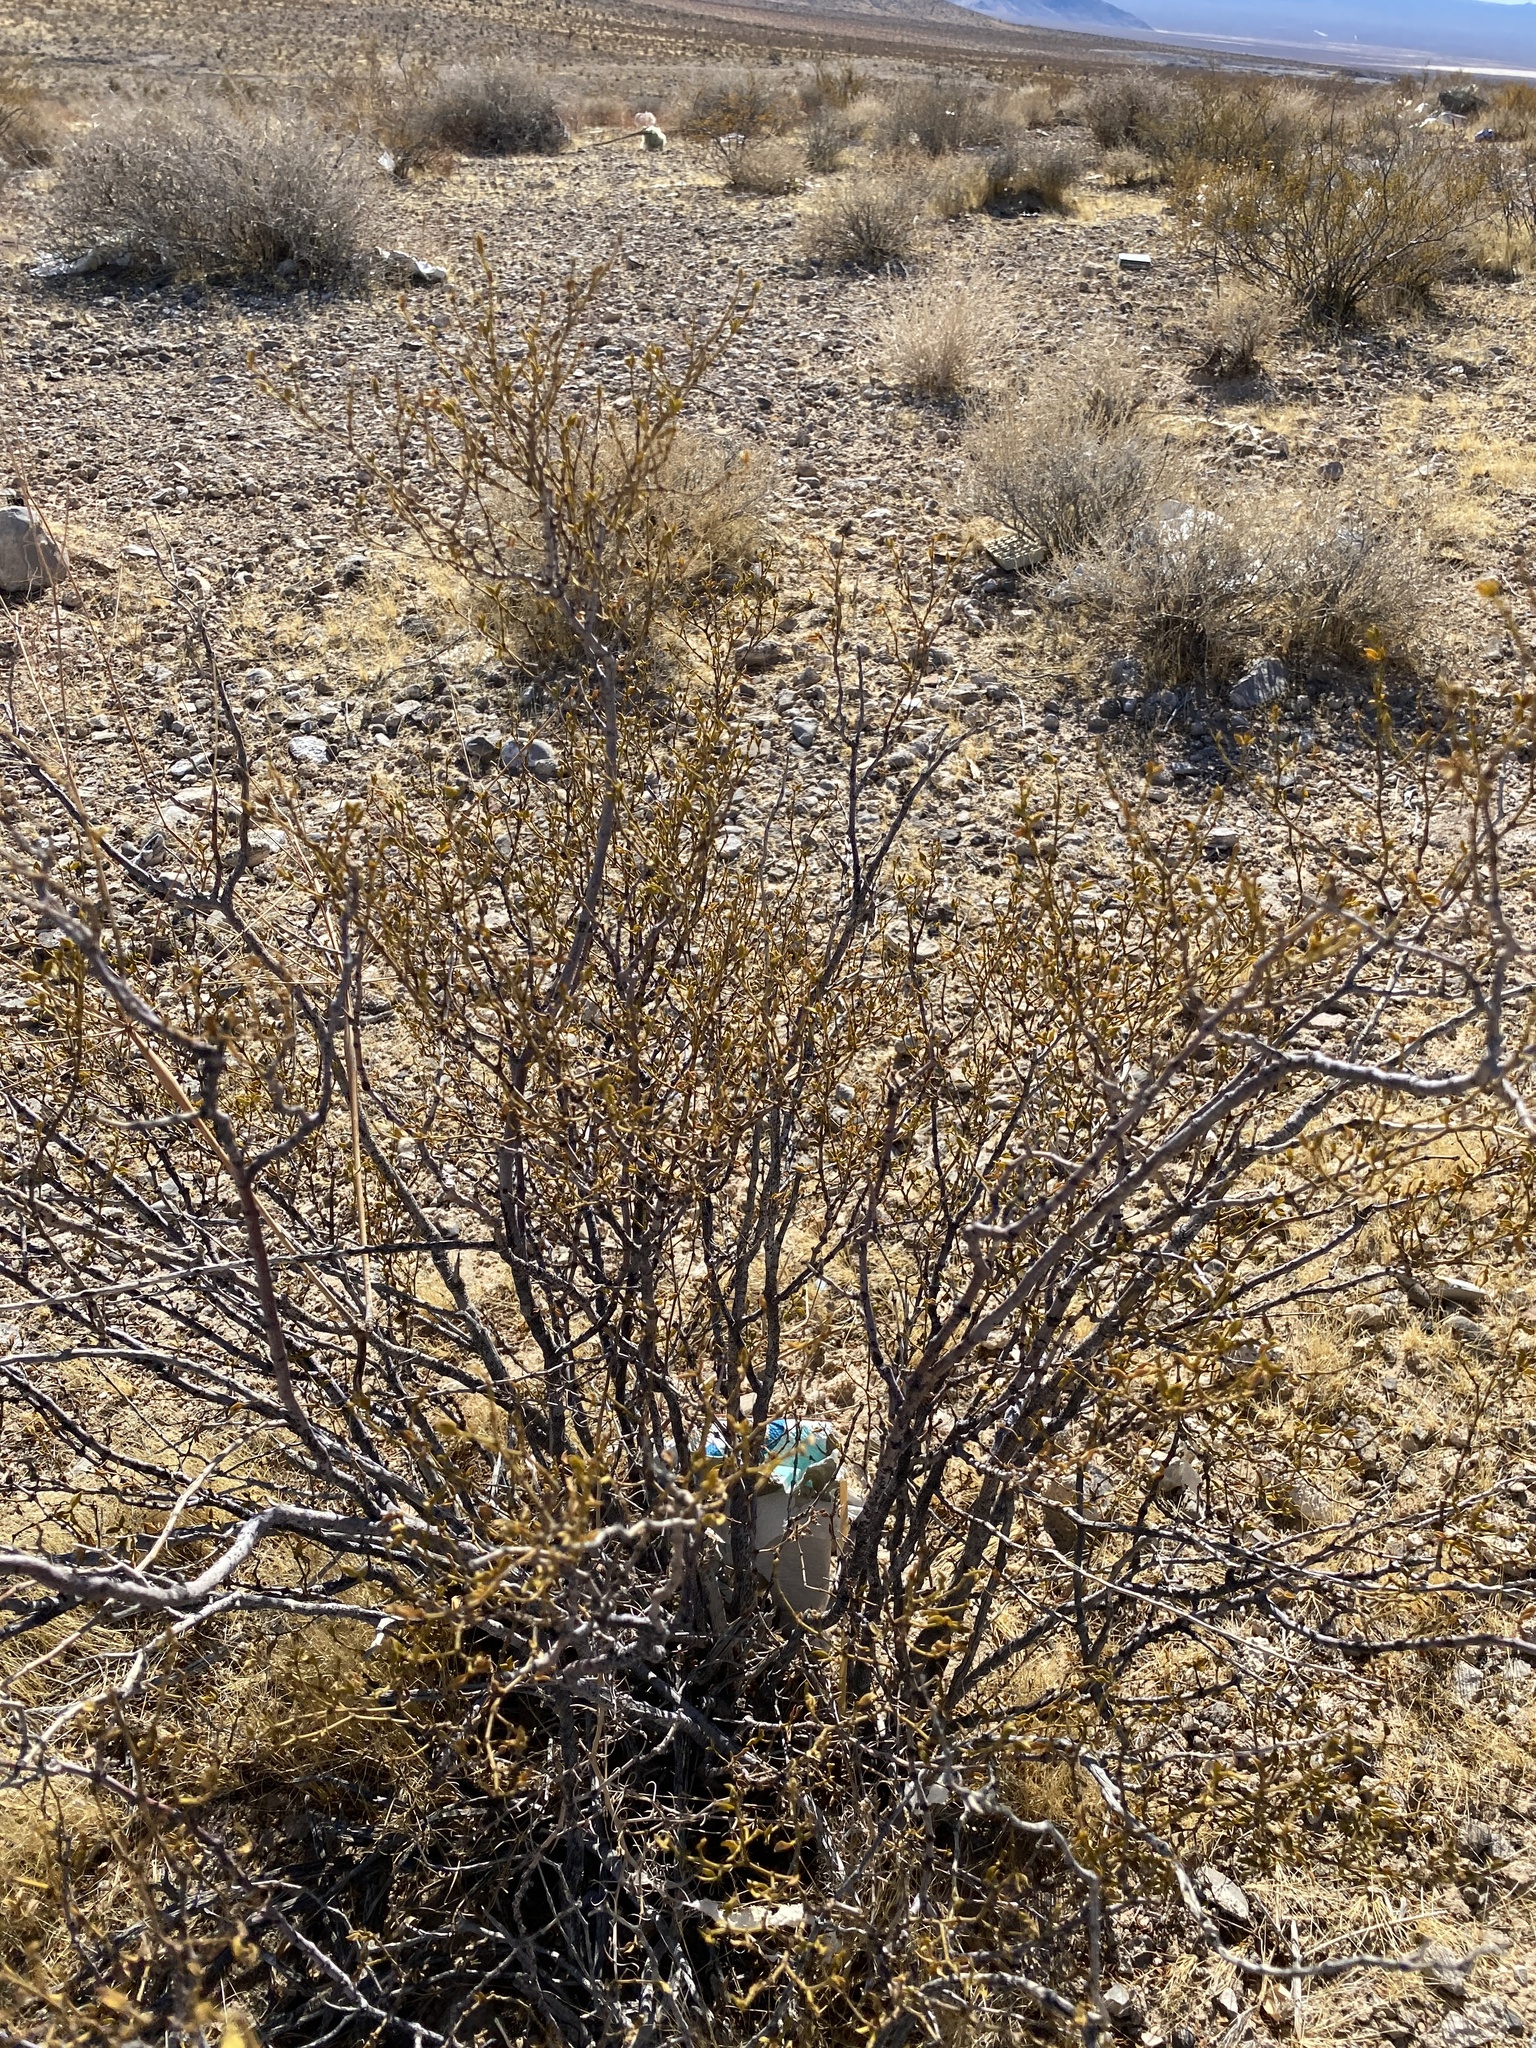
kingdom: Plantae
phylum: Tracheophyta
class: Magnoliopsida
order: Zygophyllales
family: Zygophyllaceae
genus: Larrea
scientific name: Larrea tridentata
